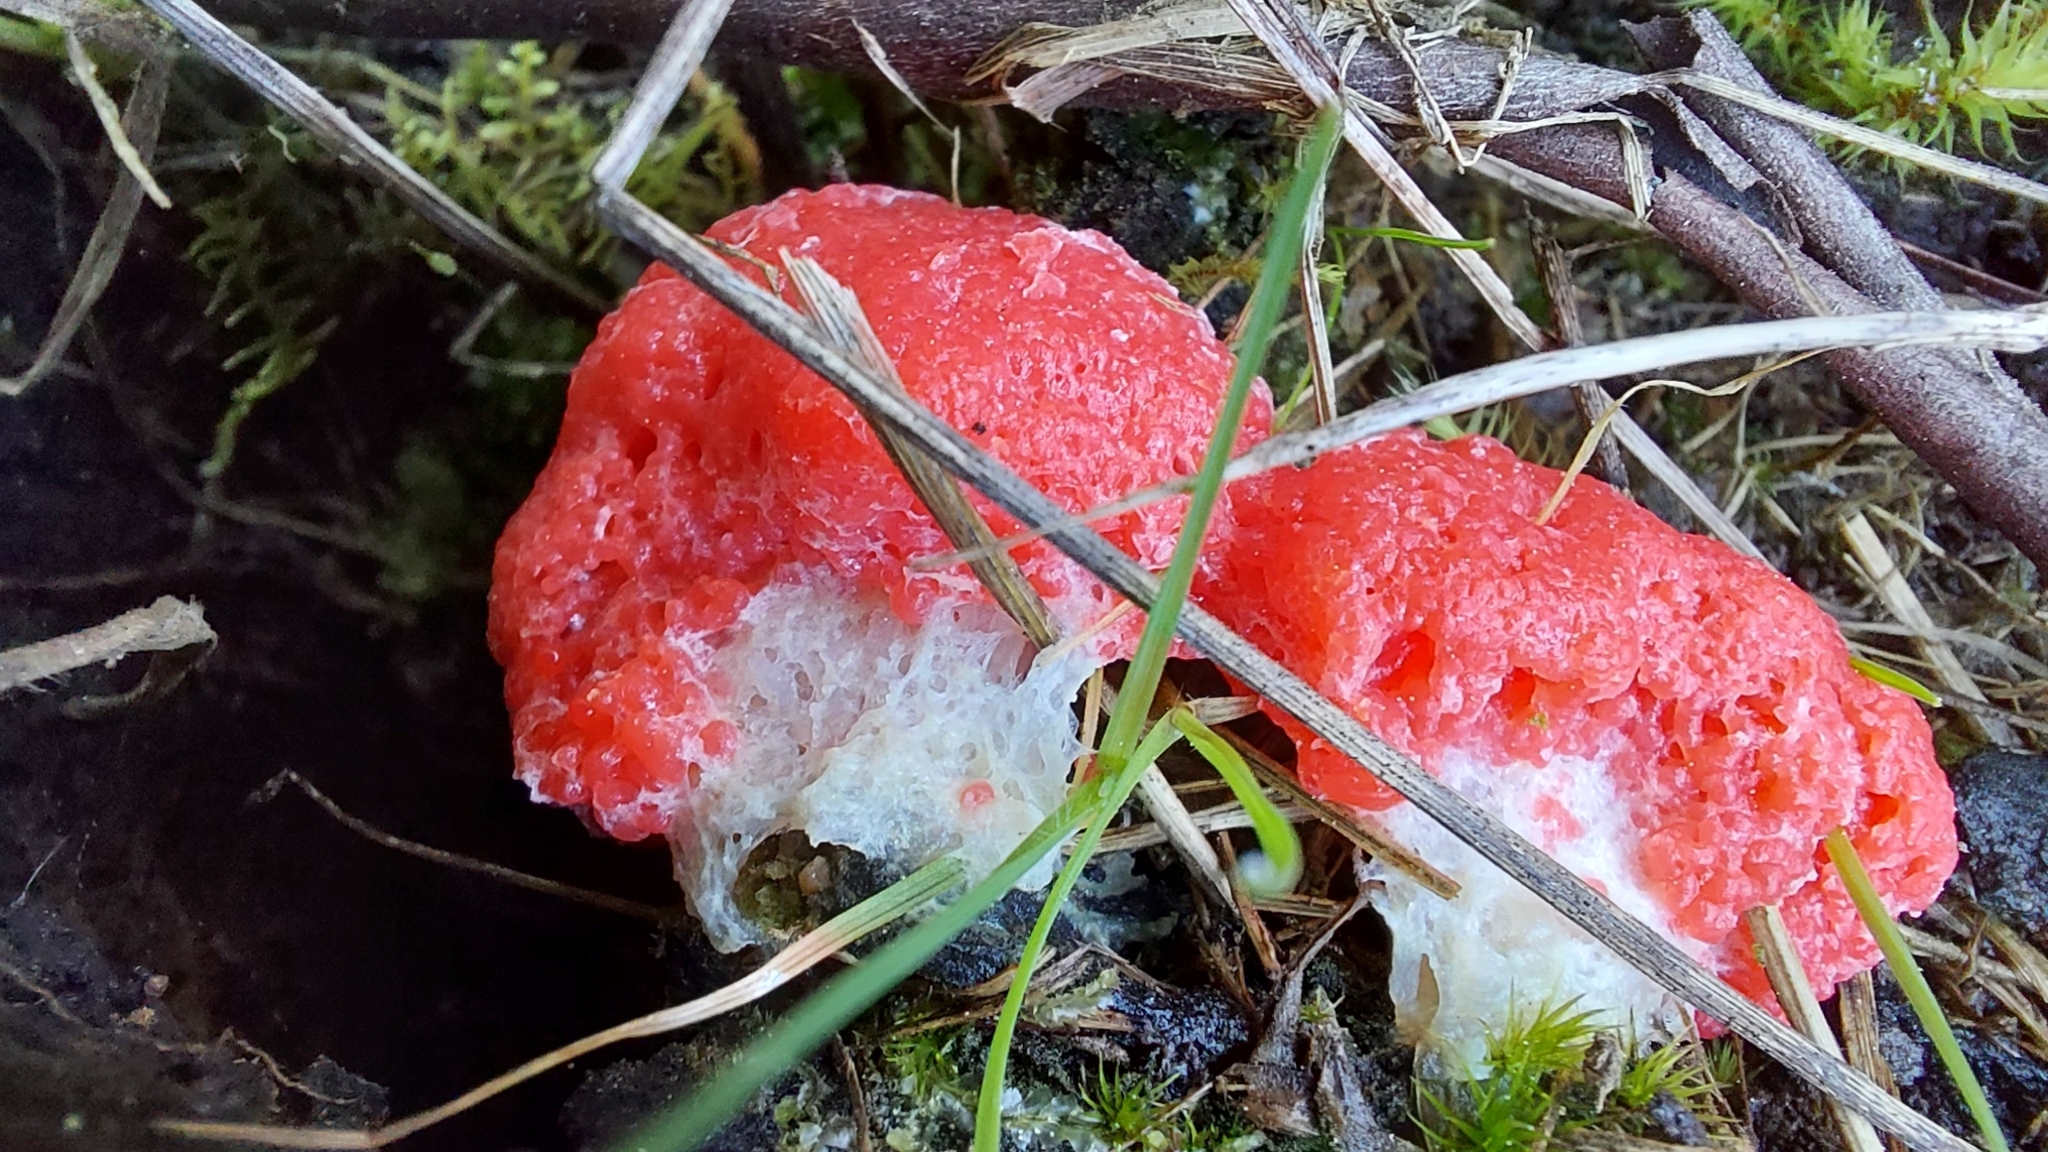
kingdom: Protozoa
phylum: Mycetozoa
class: Myxomycetes
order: Cribrariales
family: Tubiferaceae
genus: Tubifera
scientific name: Tubifera ferruginosa
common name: Red raspberry slime mold
